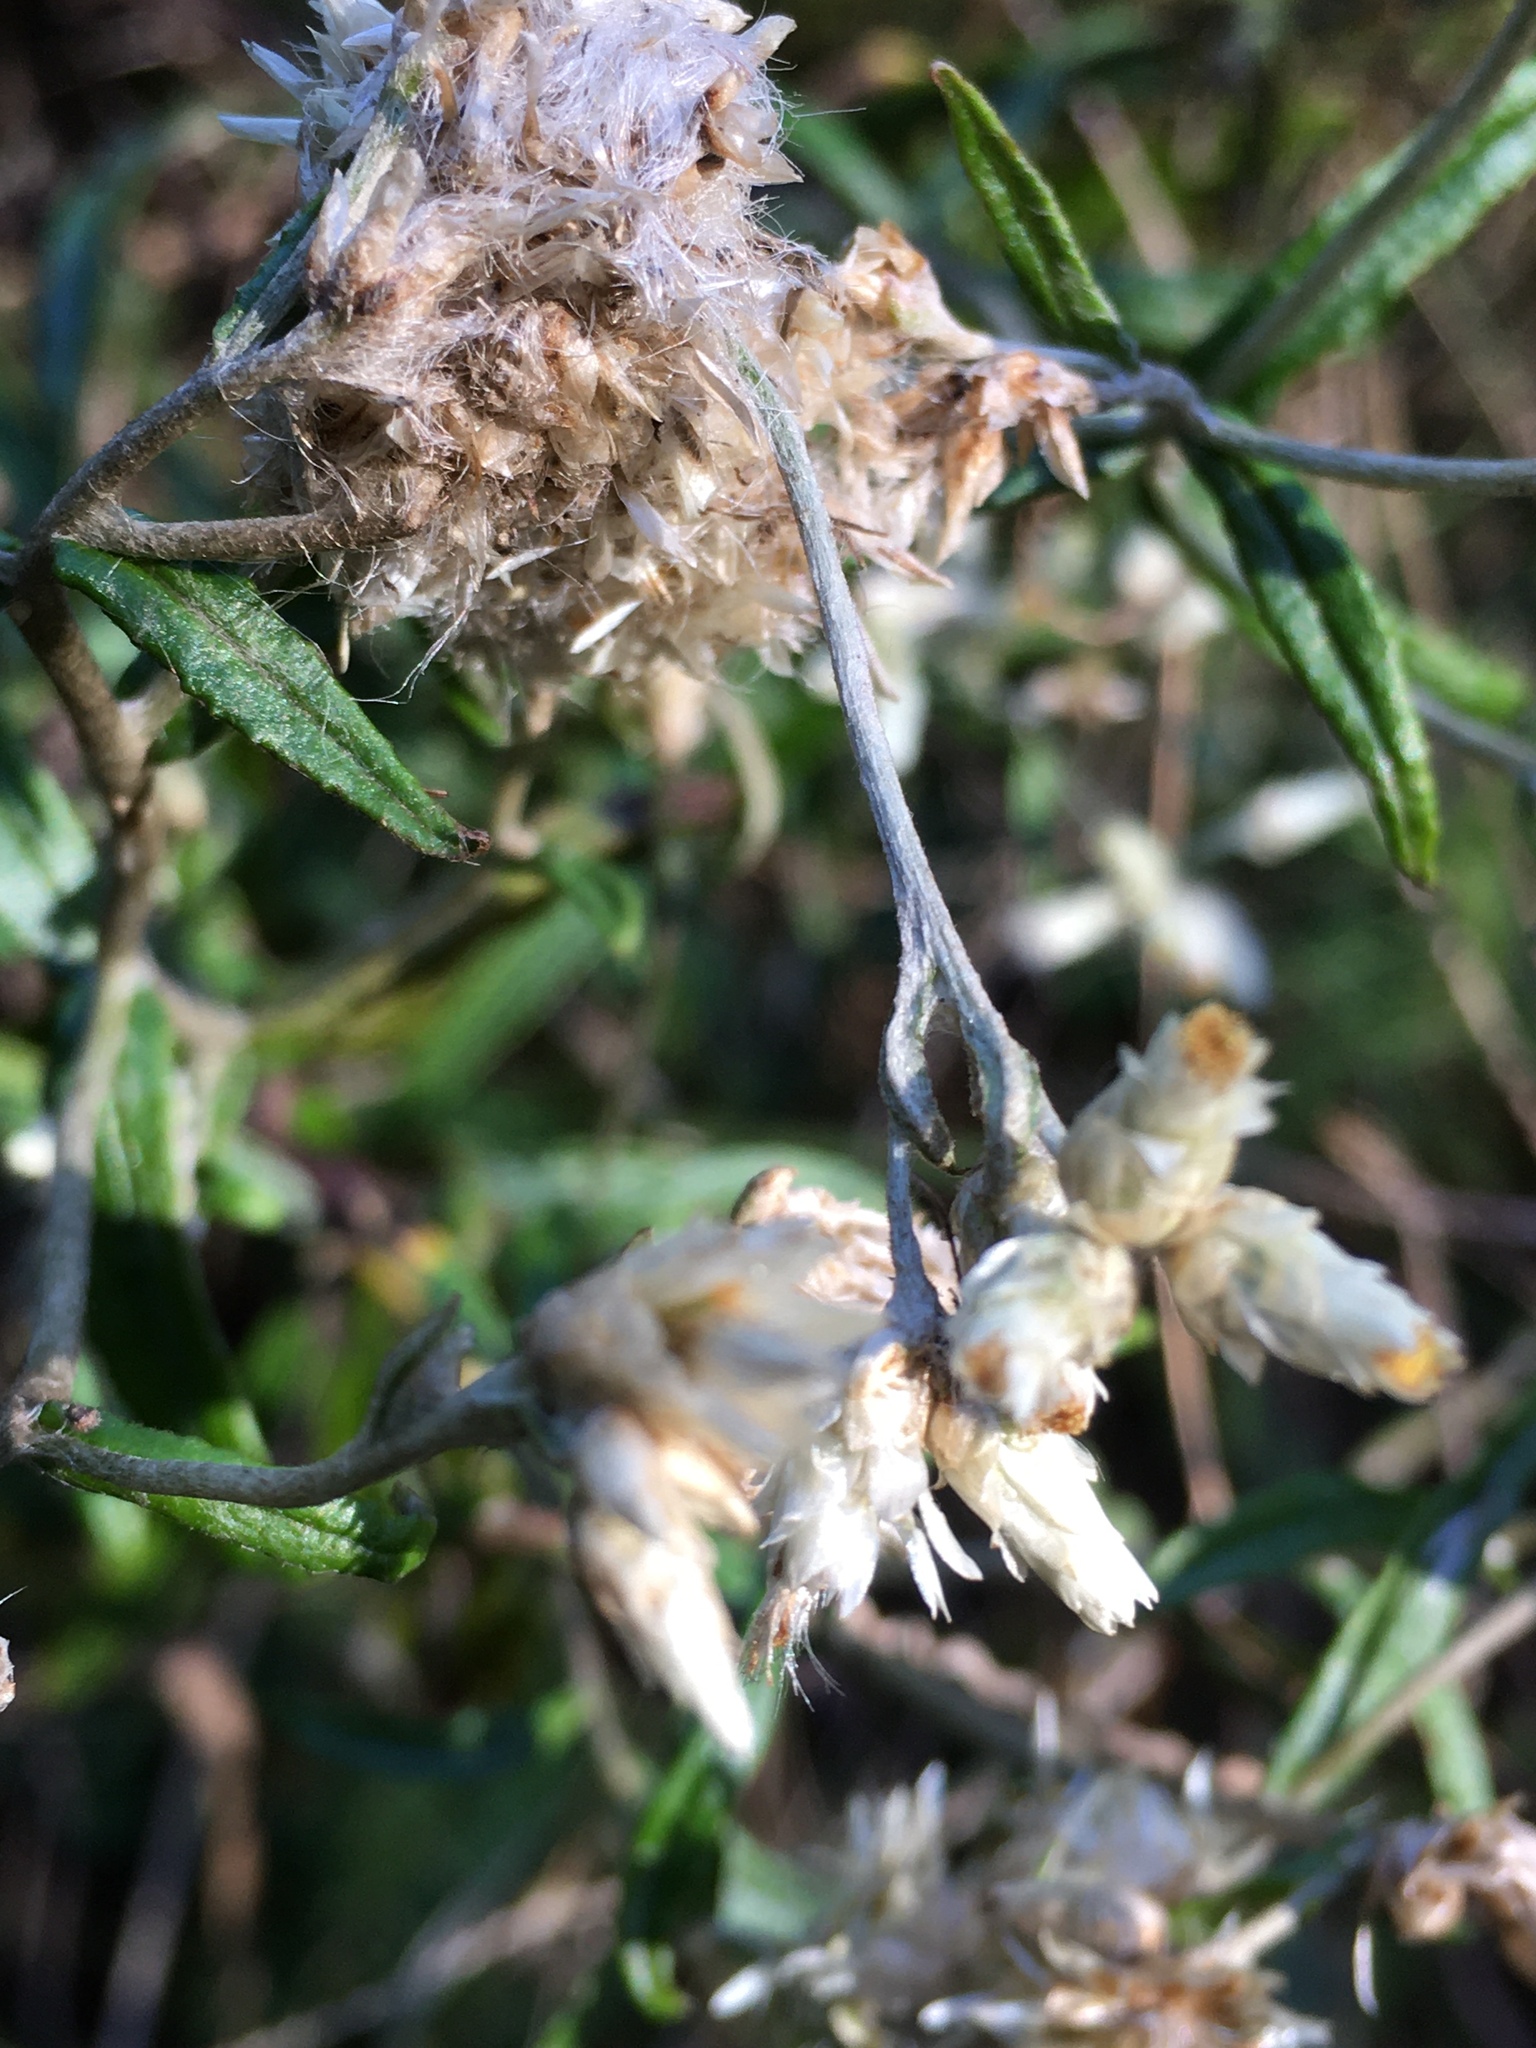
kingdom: Plantae
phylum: Tracheophyta
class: Magnoliopsida
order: Asterales
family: Asteraceae
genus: Pseudognaphalium
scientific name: Pseudognaphalium obtusifolium
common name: Eastern rabbit-tobacco
